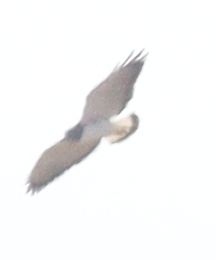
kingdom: Animalia
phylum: Chordata
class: Aves
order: Accipitriformes
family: Accipitridae
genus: Buteo
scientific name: Buteo albicaudatus
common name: White-tailed hawk
